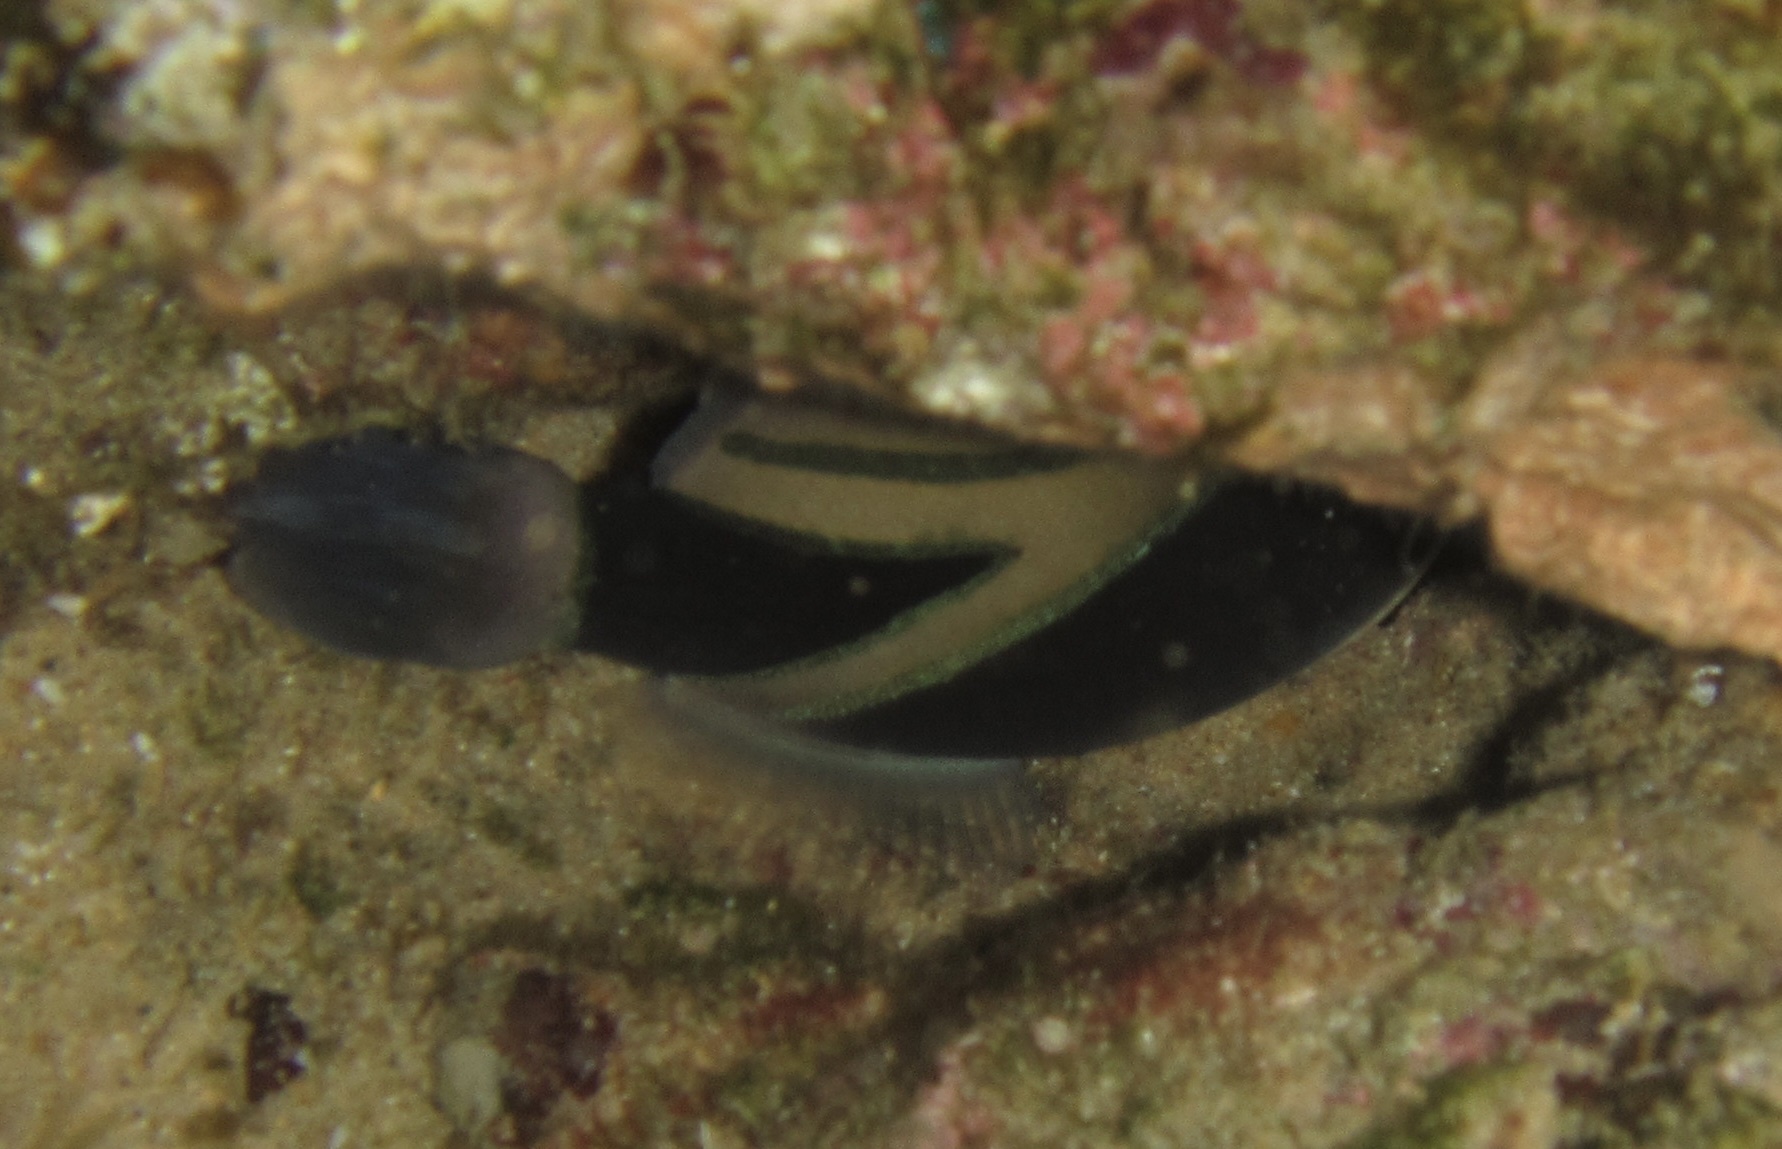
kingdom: Animalia
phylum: Chordata
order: Tetraodontiformes
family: Balistidae
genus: Rhinecanthus
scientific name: Rhinecanthus rectangulus
